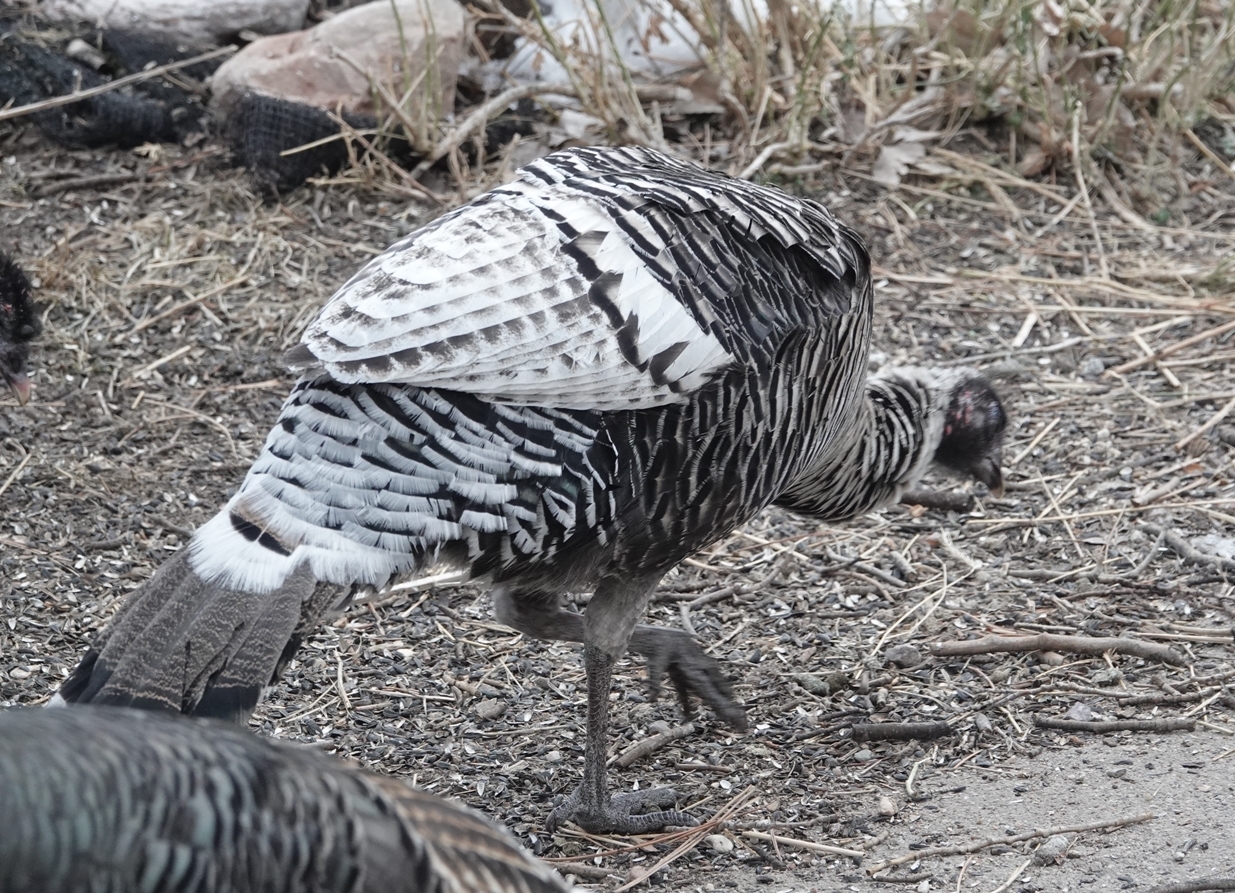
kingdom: Animalia
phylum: Chordata
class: Aves
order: Galliformes
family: Phasianidae
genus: Meleagris
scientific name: Meleagris gallopavo
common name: Wild turkey
